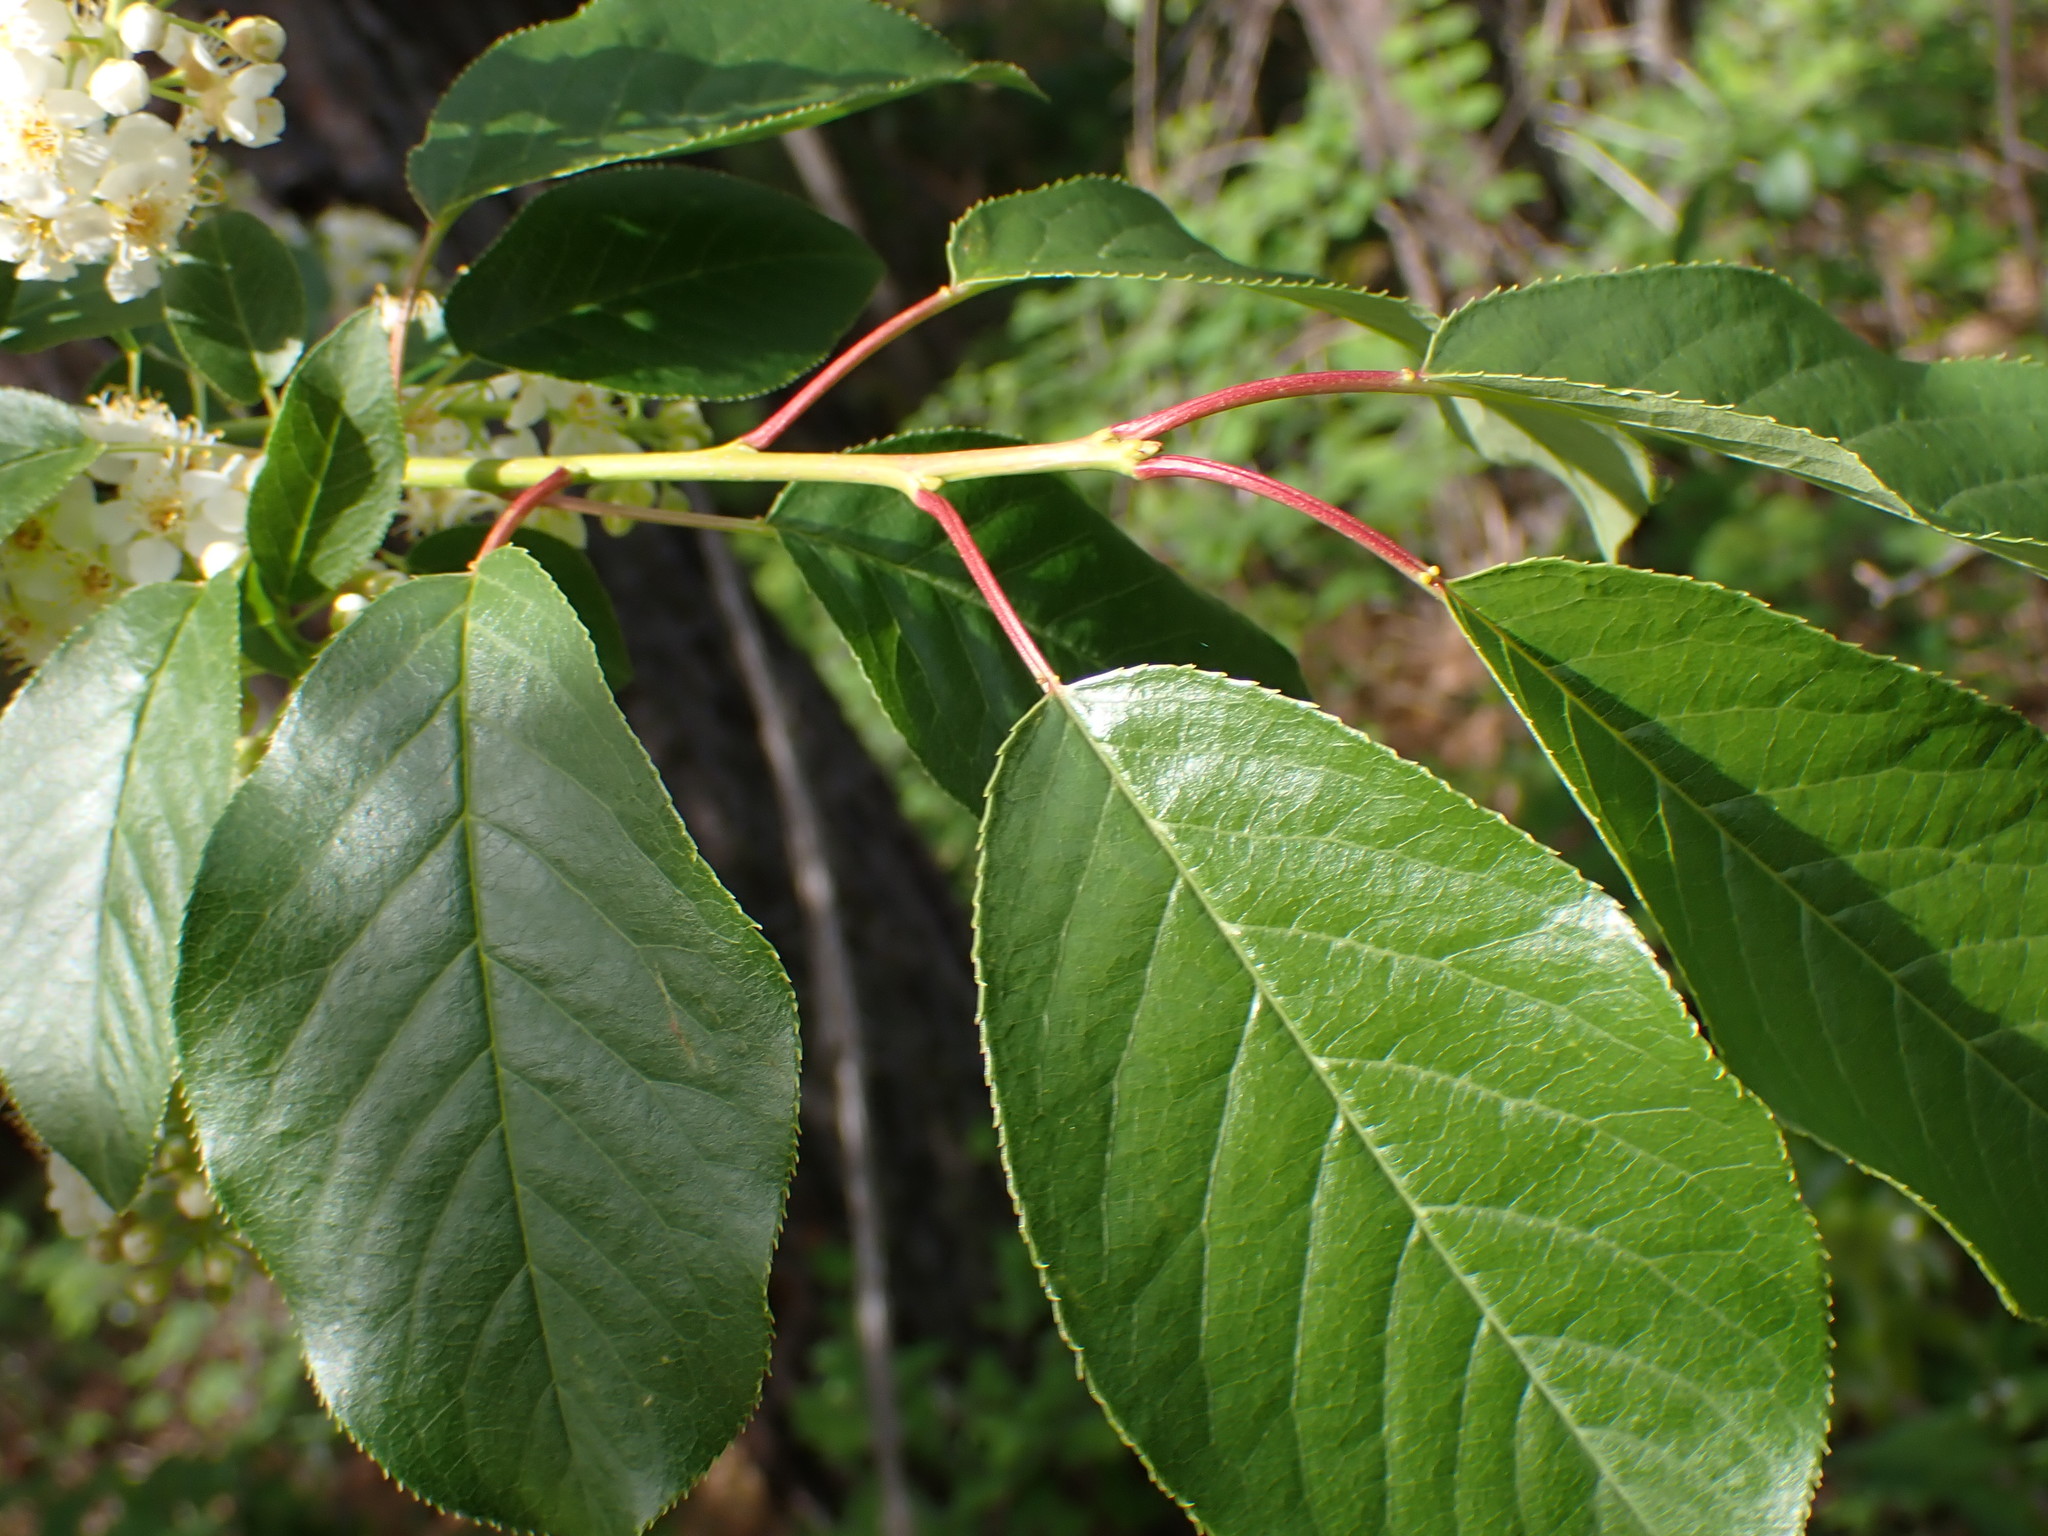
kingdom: Plantae
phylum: Tracheophyta
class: Magnoliopsida
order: Rosales
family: Rosaceae
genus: Prunus
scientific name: Prunus virginiana
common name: Chokecherry
